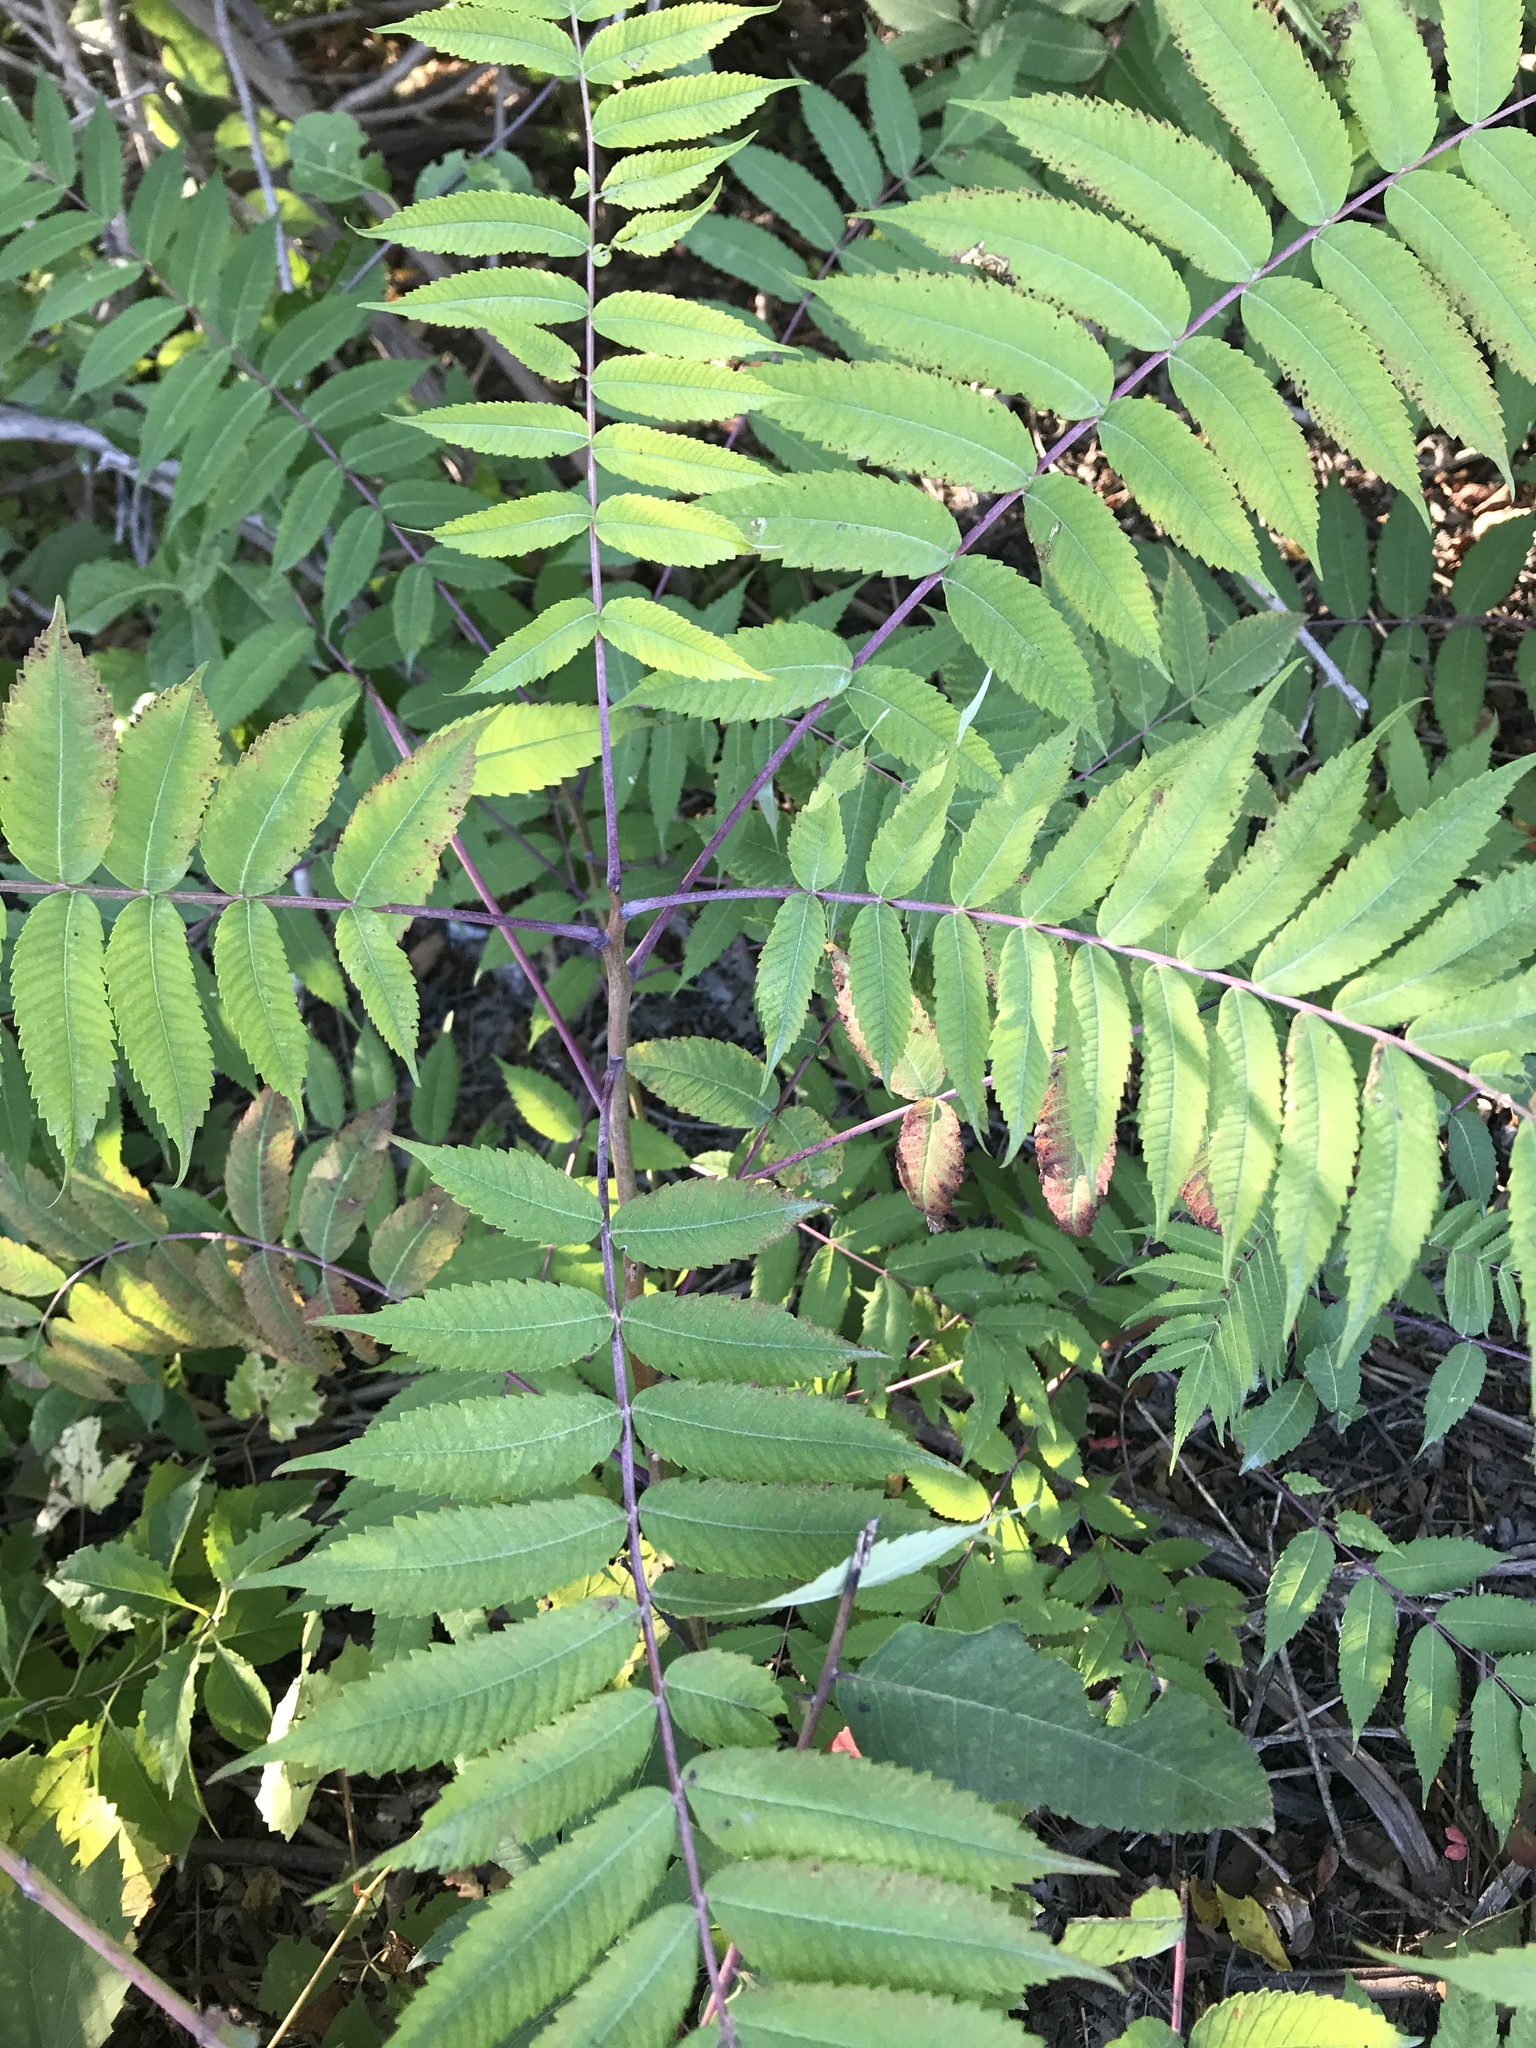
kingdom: Plantae
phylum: Tracheophyta
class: Magnoliopsida
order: Sapindales
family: Anacardiaceae
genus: Rhus
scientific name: Rhus glabra
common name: Scarlet sumac
